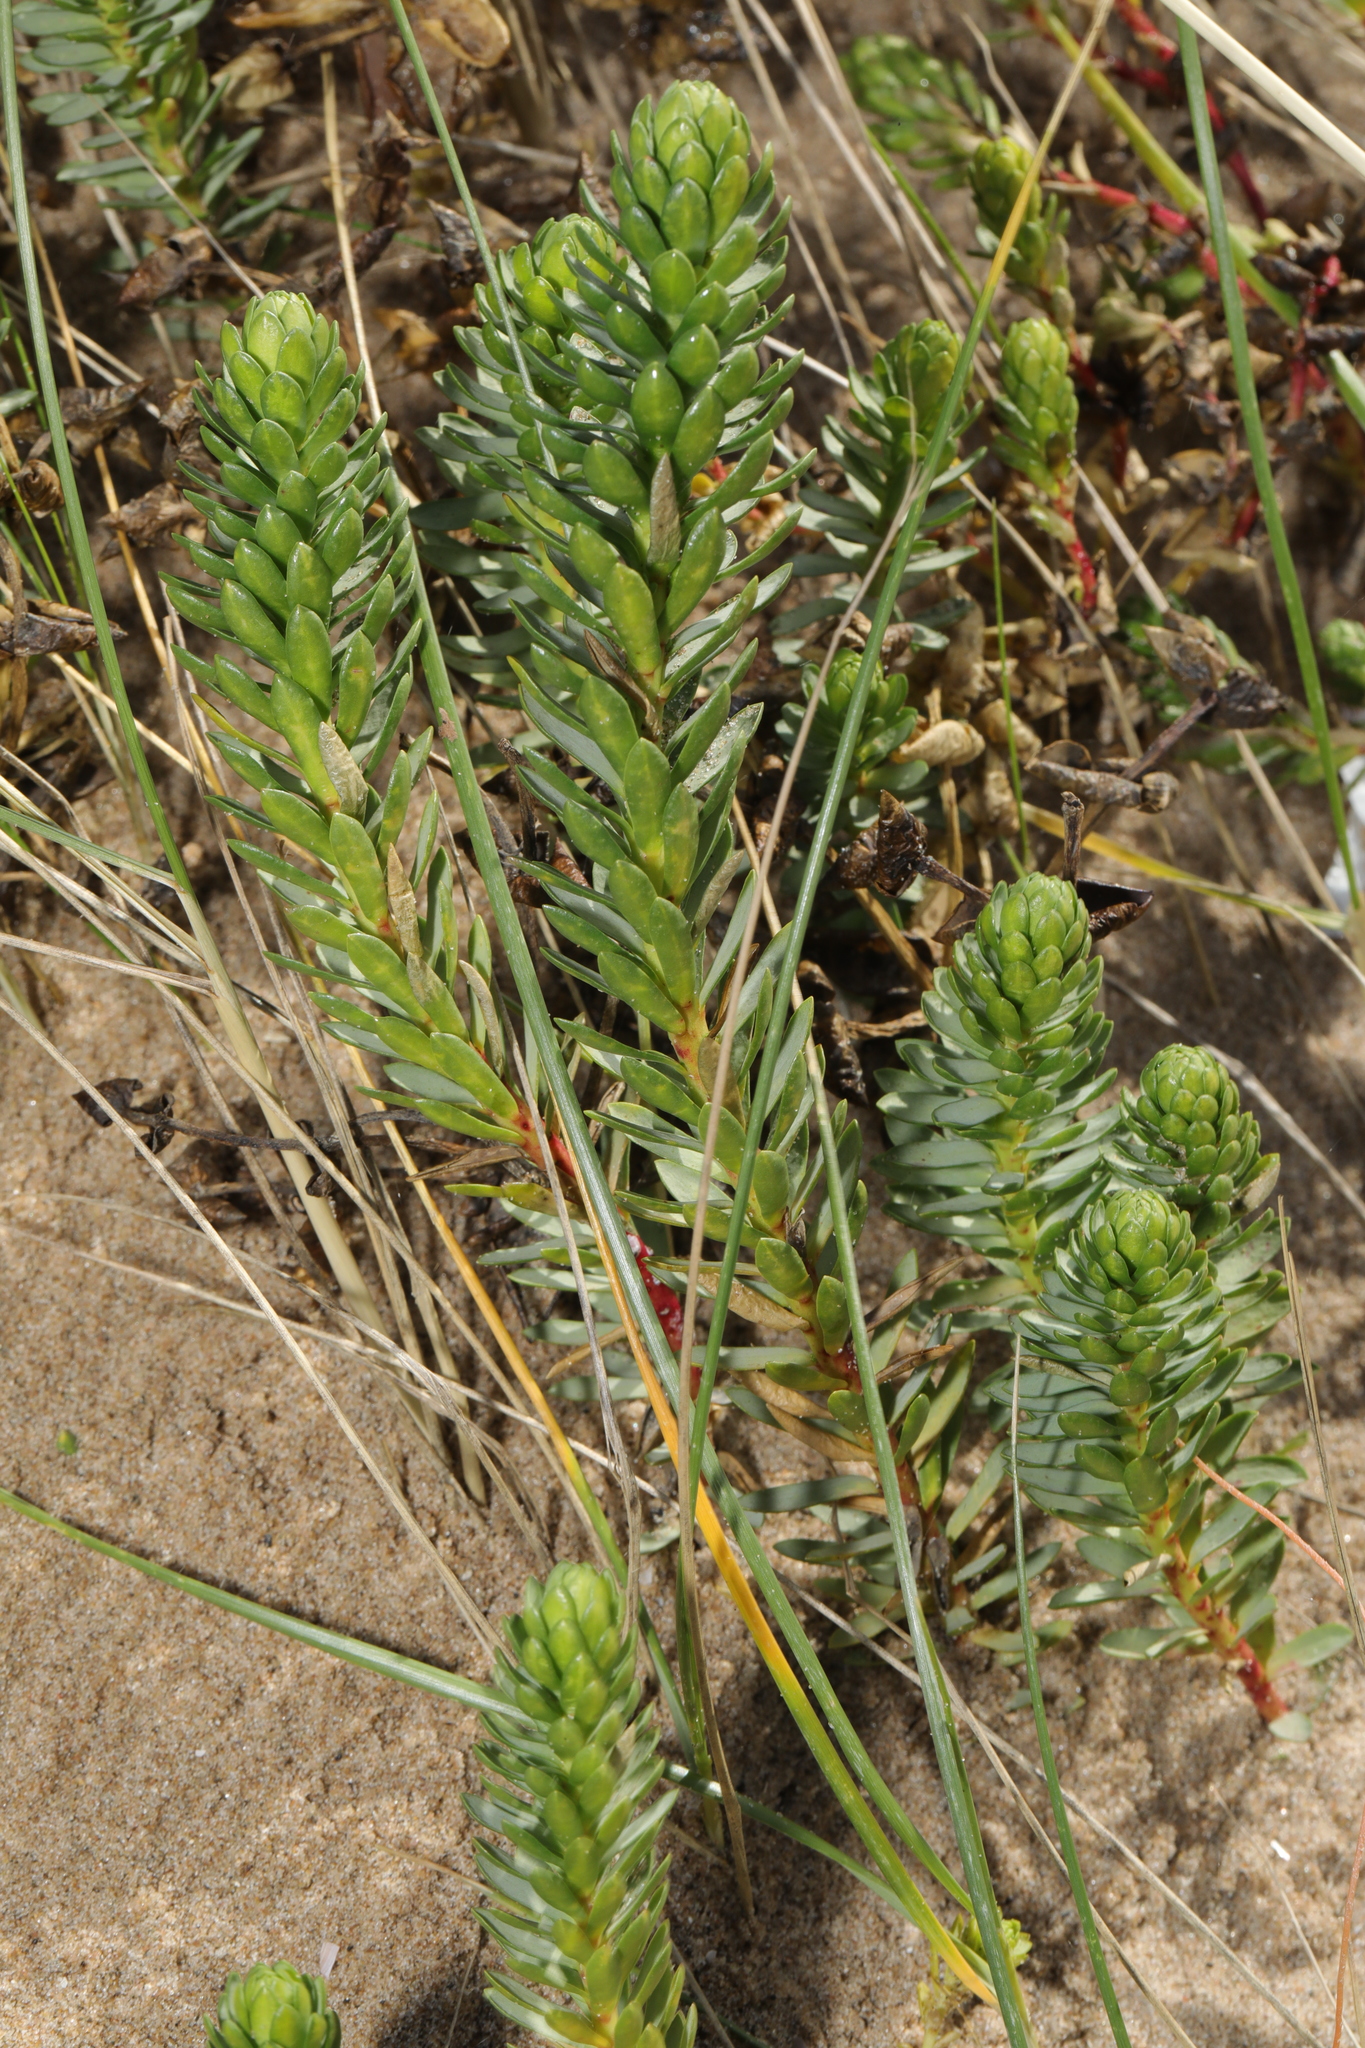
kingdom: Plantae
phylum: Tracheophyta
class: Magnoliopsida
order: Malpighiales
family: Euphorbiaceae
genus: Euphorbia
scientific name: Euphorbia paralias
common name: Sea spurge
